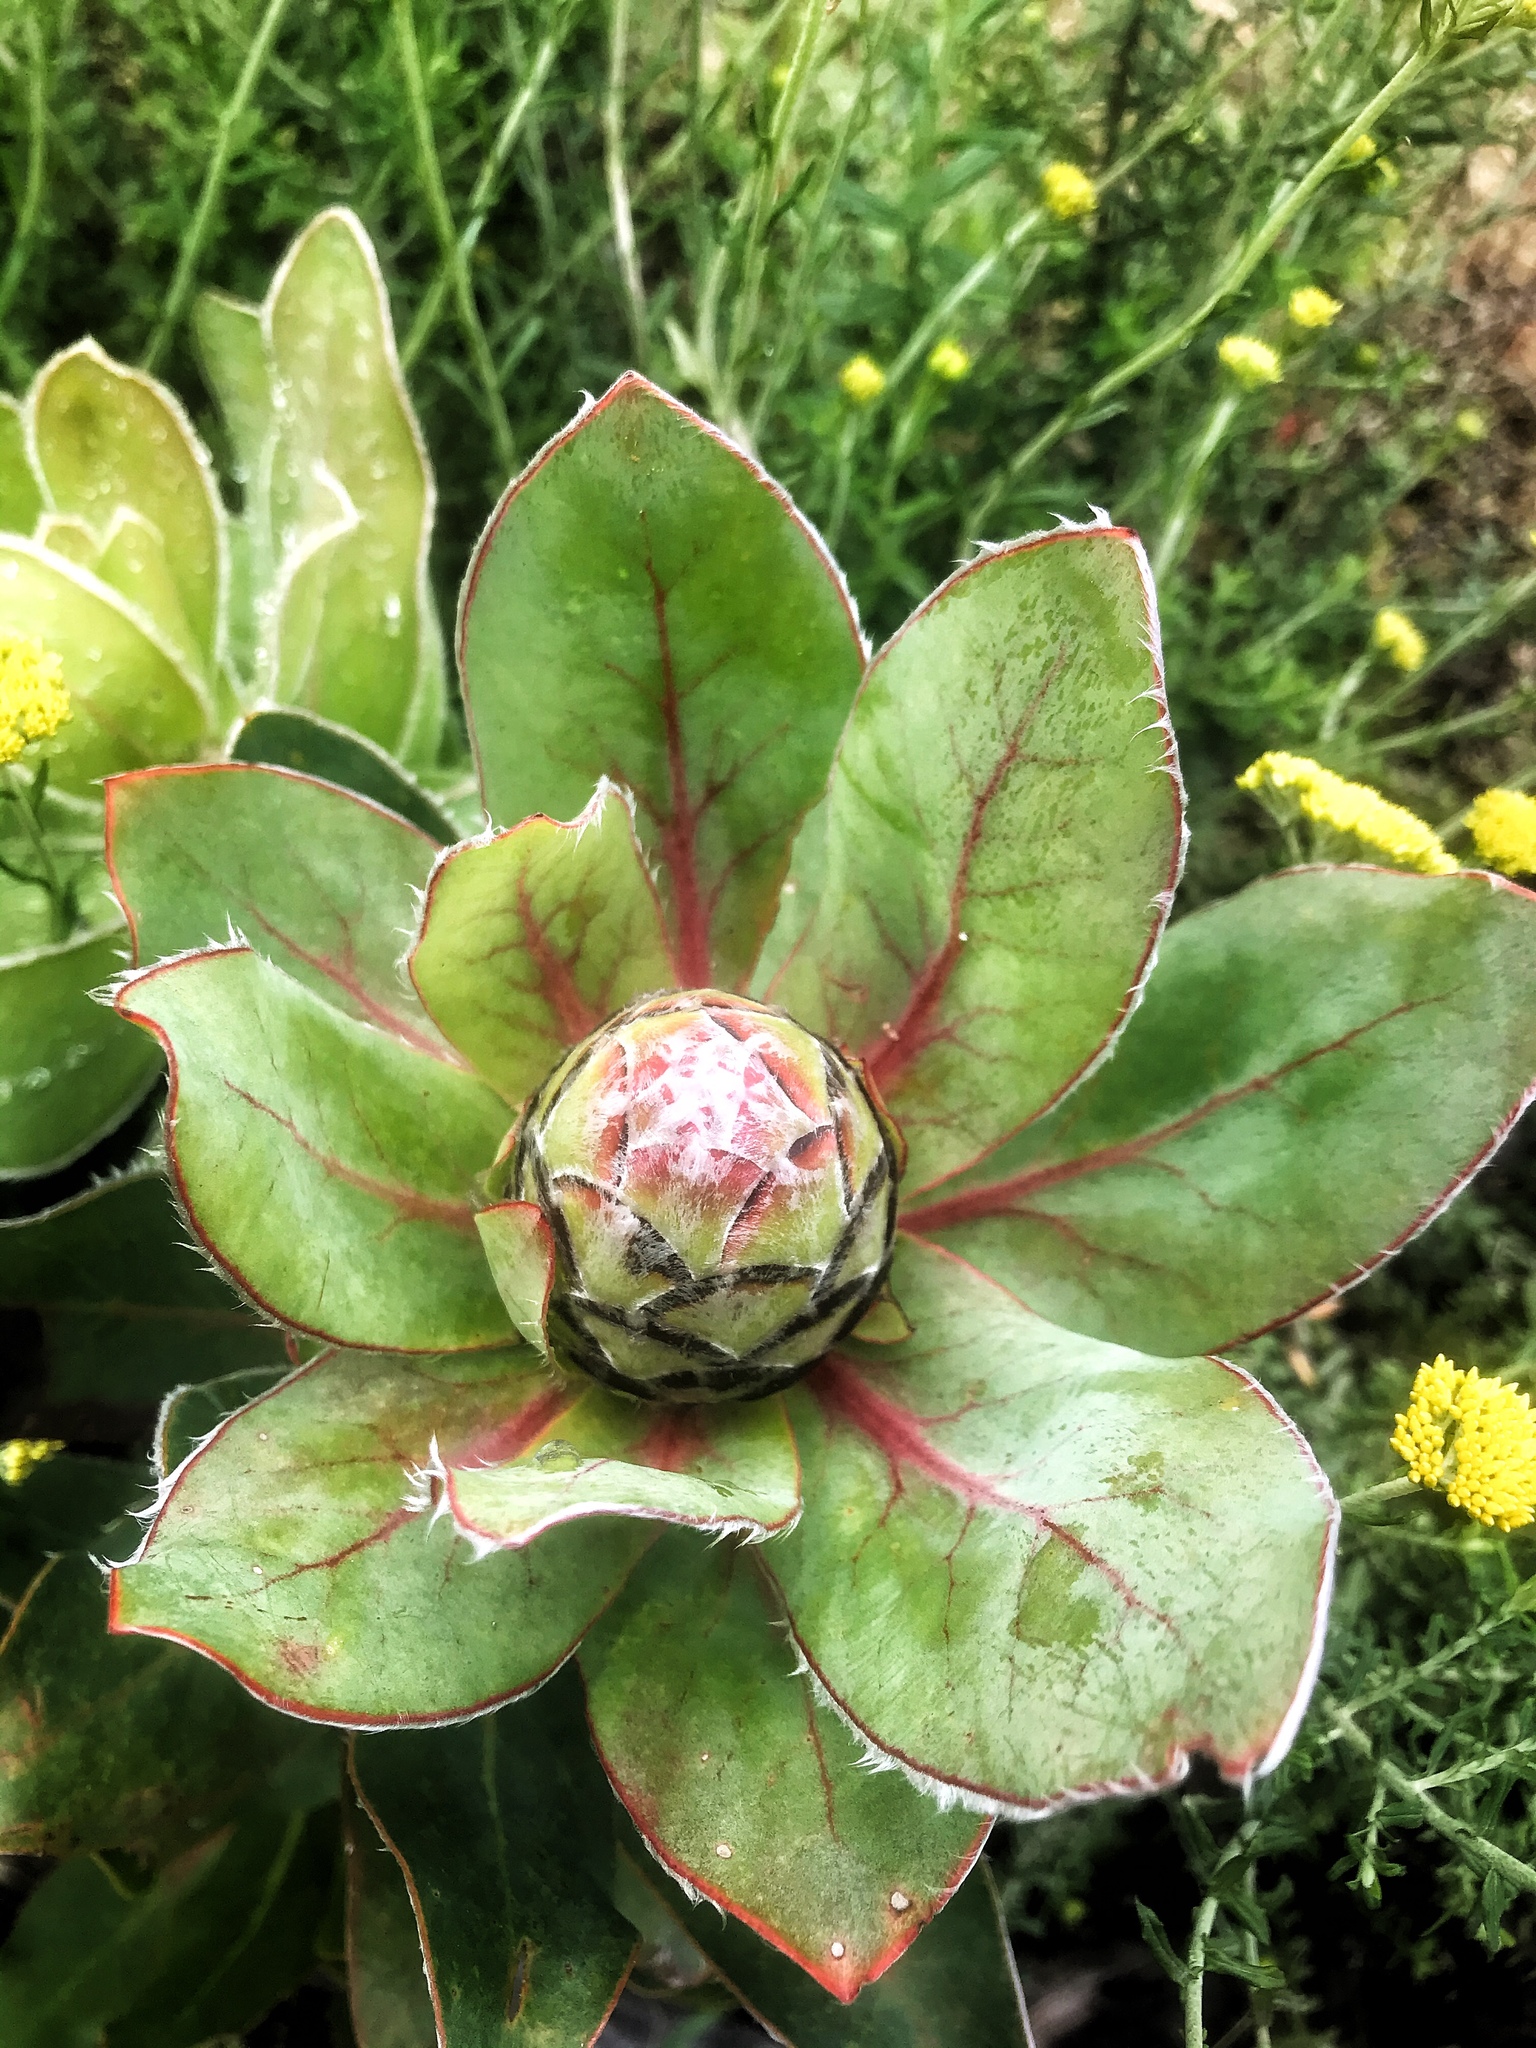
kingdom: Plantae
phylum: Tracheophyta
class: Magnoliopsida
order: Proteales
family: Proteaceae
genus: Protea
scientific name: Protea eximia
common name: Broad-leaved sugarbush
